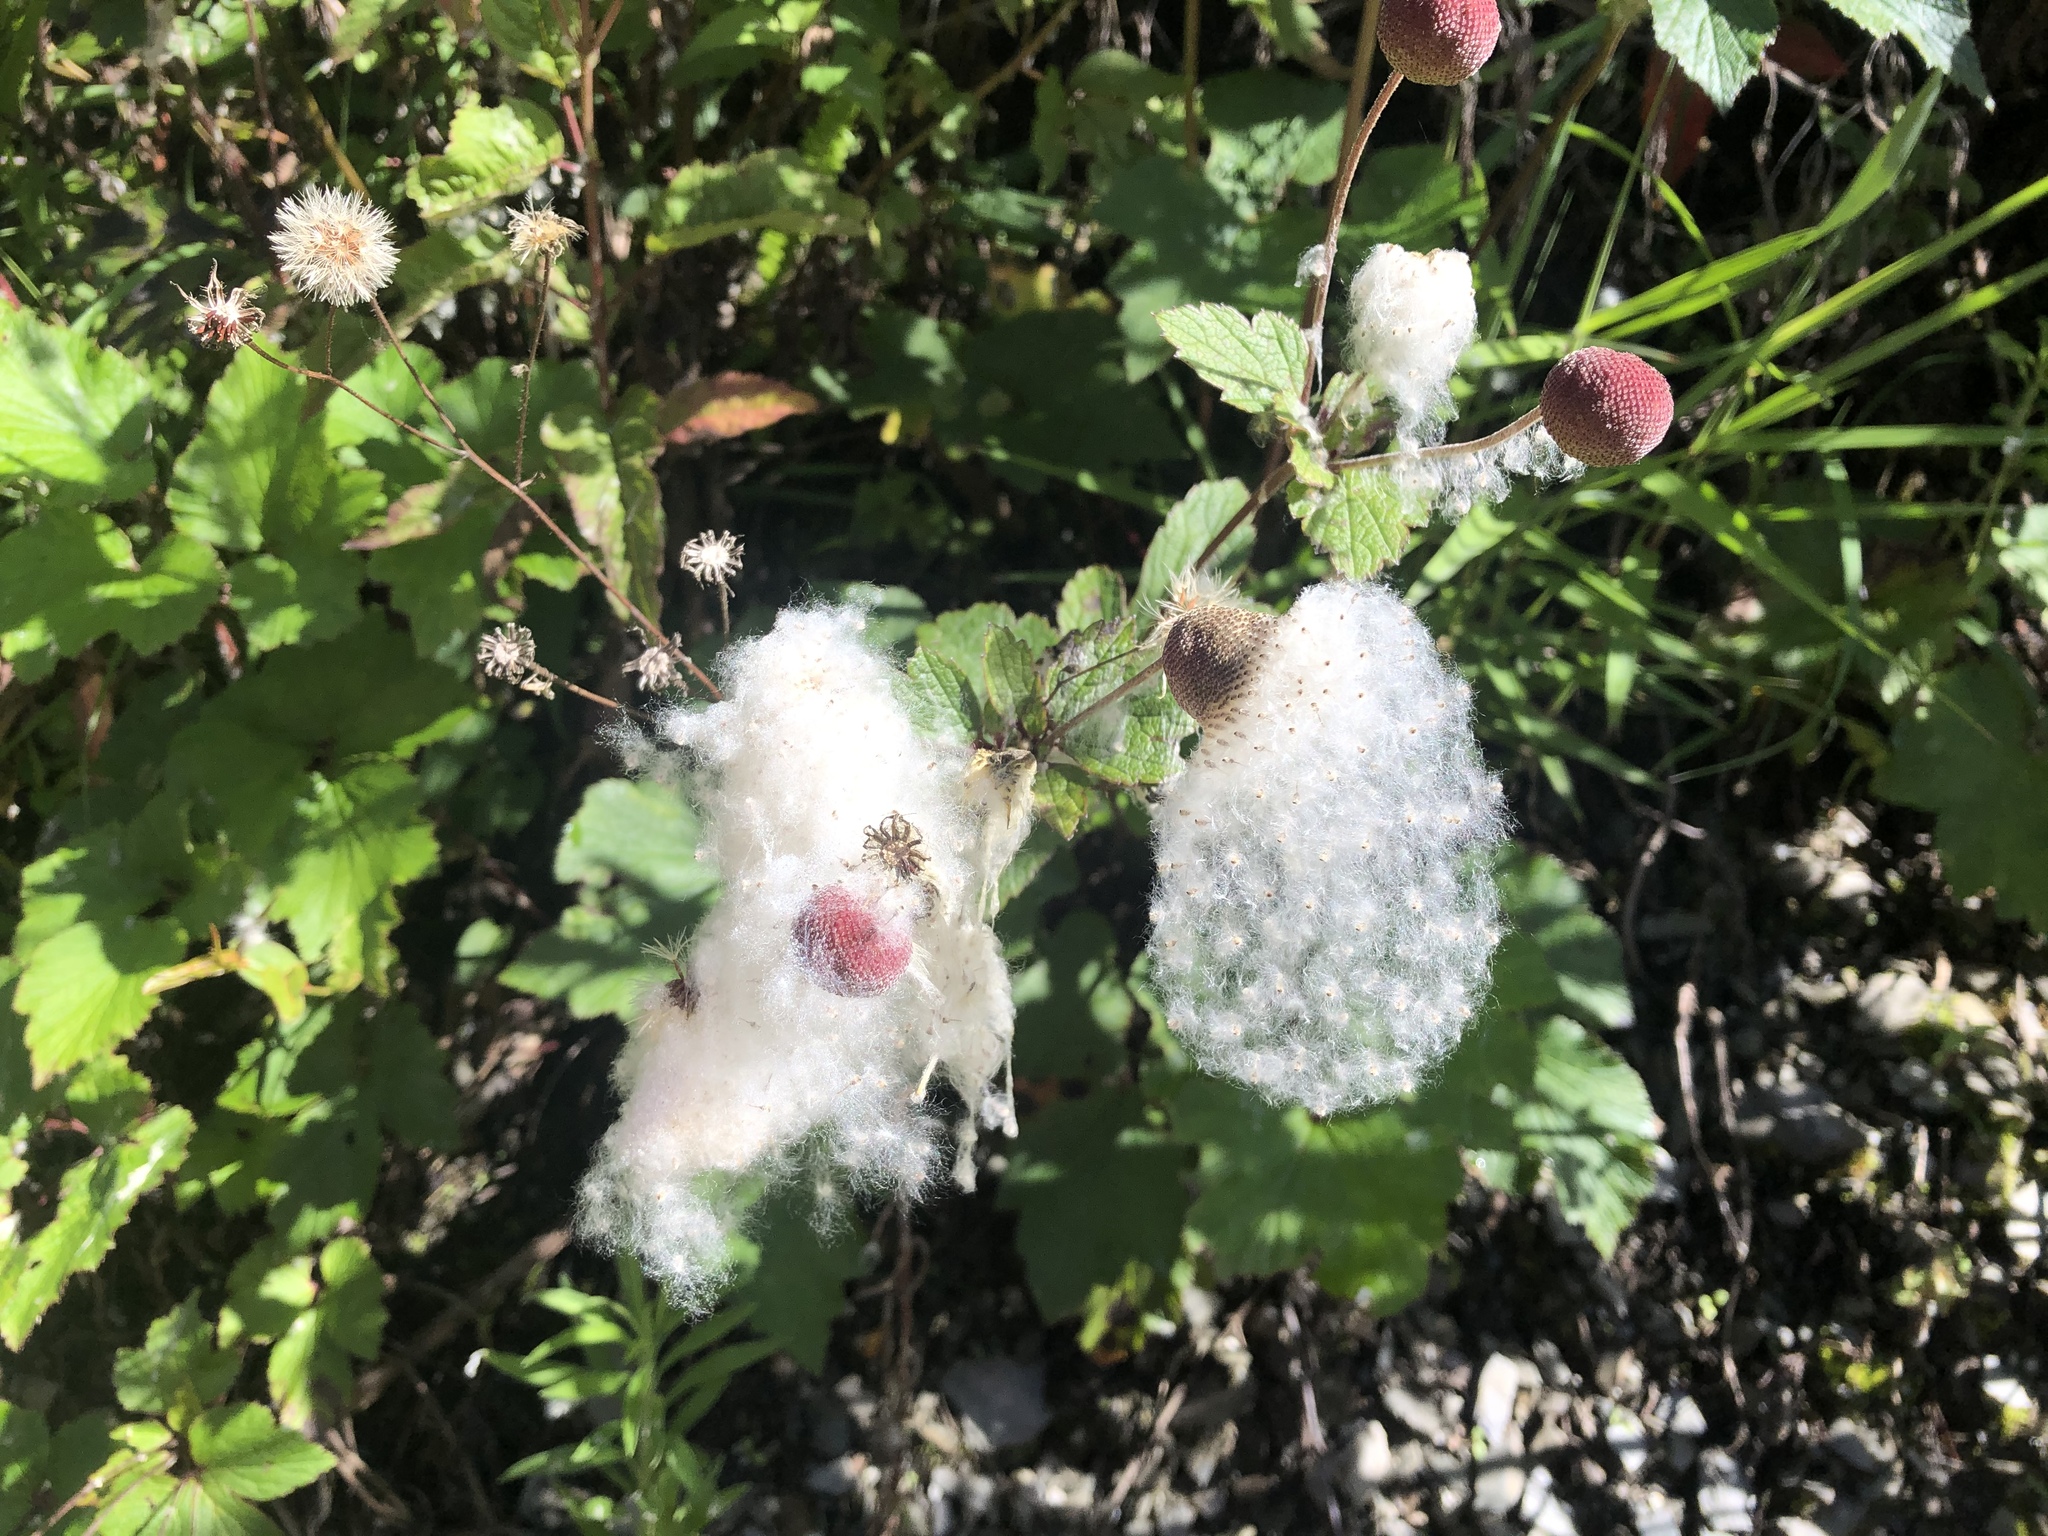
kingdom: Plantae
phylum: Tracheophyta
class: Magnoliopsida
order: Ranunculales
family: Ranunculaceae
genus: Eriocapitella
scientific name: Eriocapitella vitifolia
